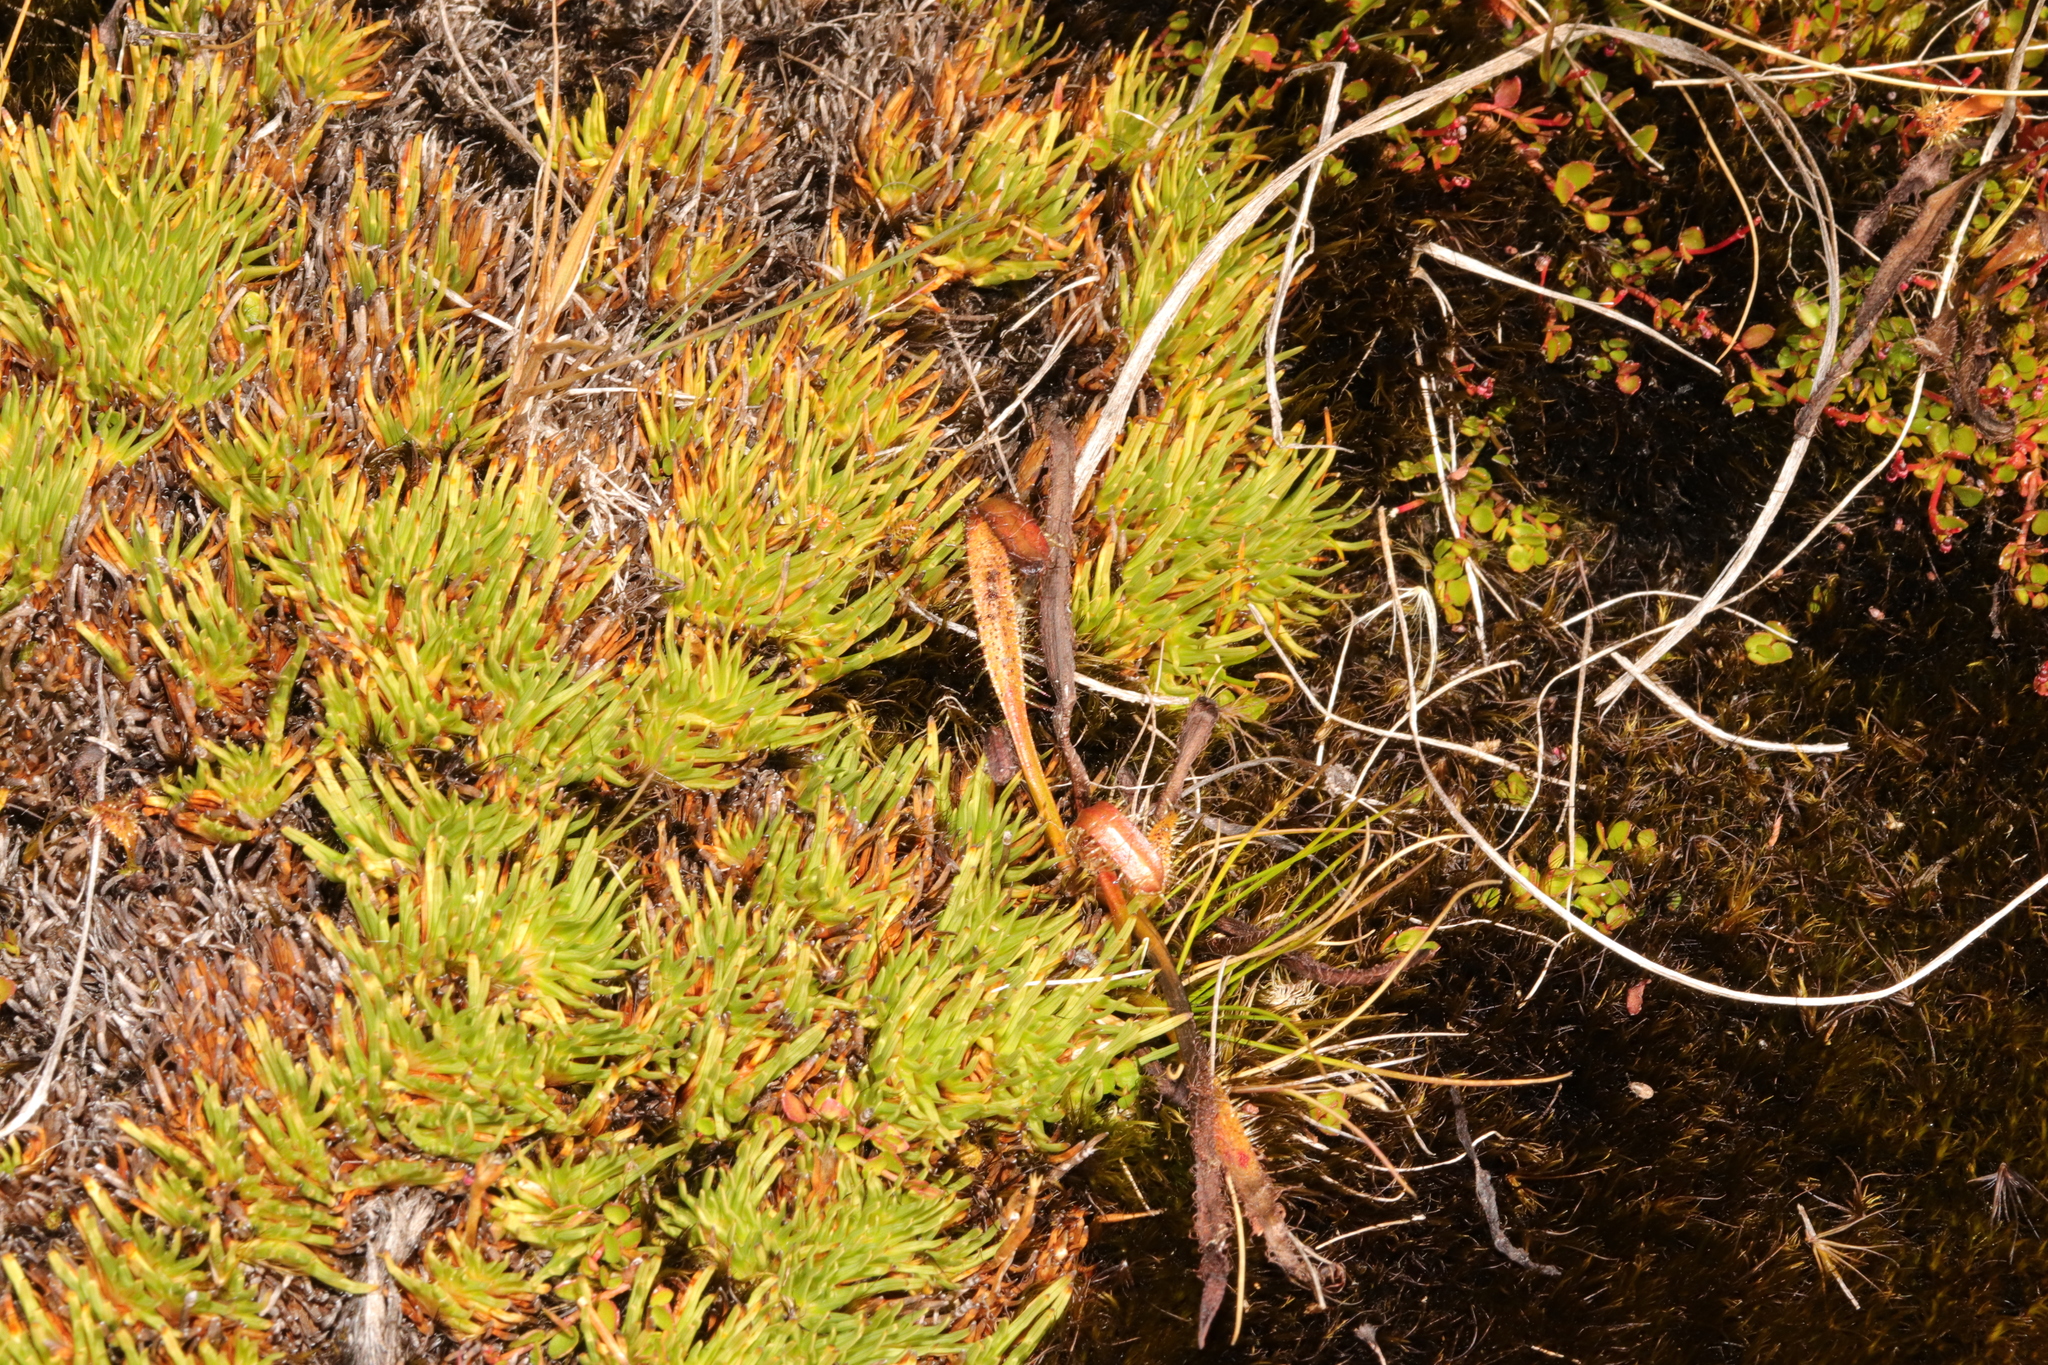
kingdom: Plantae
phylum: Tracheophyta
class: Liliopsida
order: Poales
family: Cyperaceae
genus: Oreobolus
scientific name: Oreobolus pectinatus
